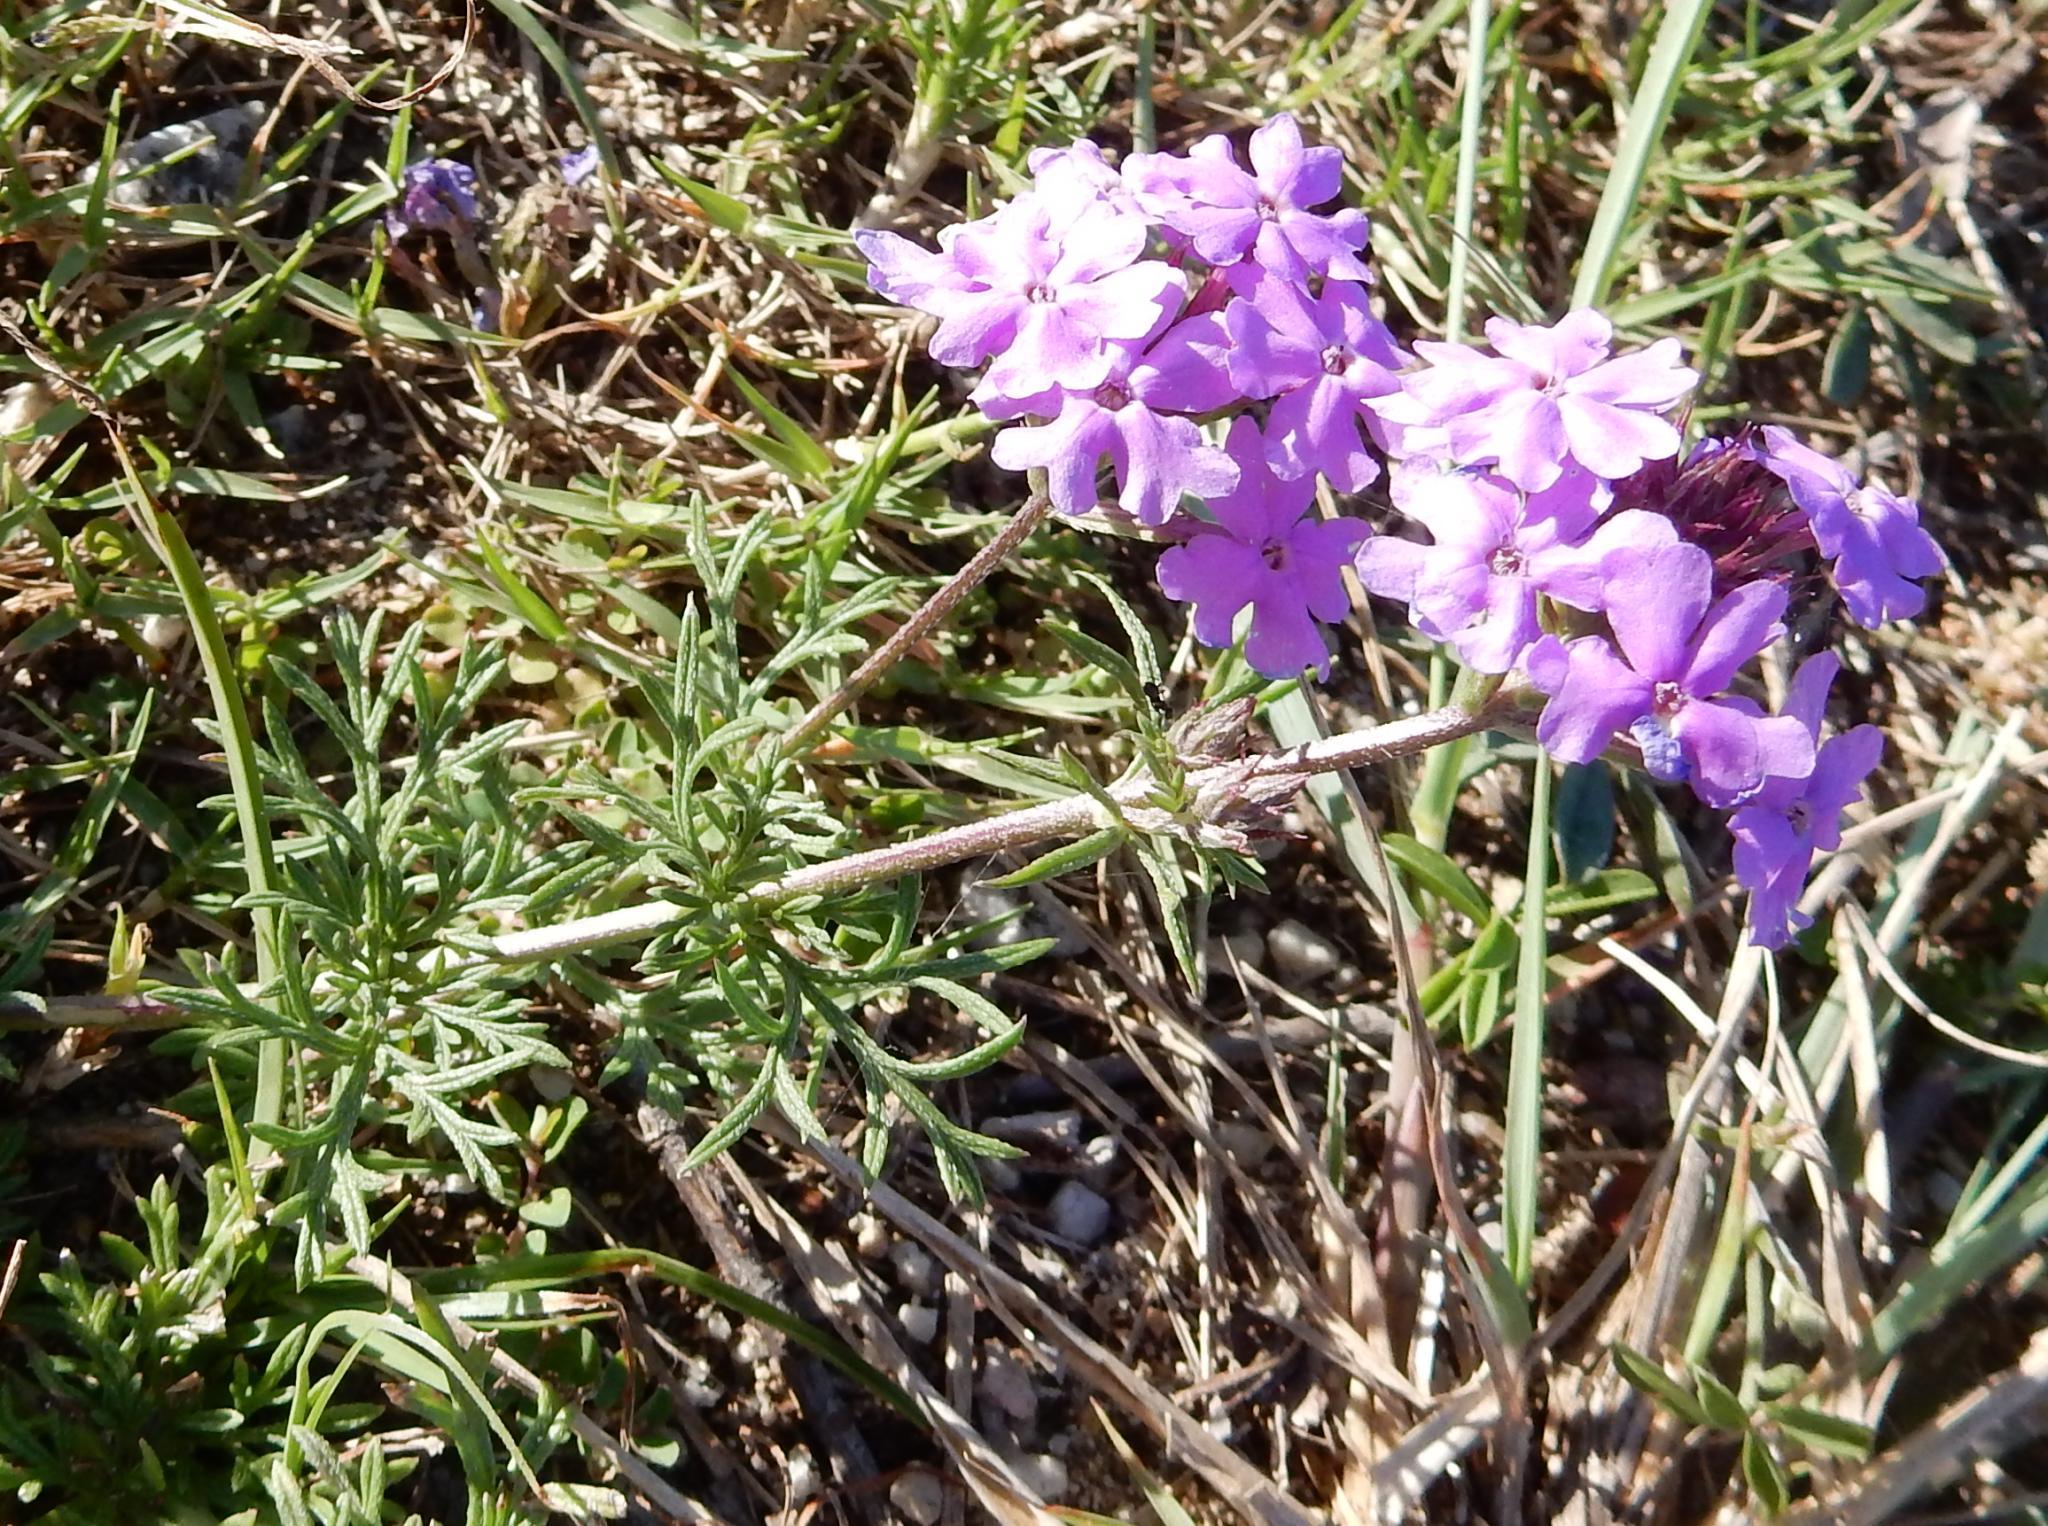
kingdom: Plantae
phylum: Tracheophyta
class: Magnoliopsida
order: Lamiales
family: Verbenaceae
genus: Verbena
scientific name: Verbena aristigera
